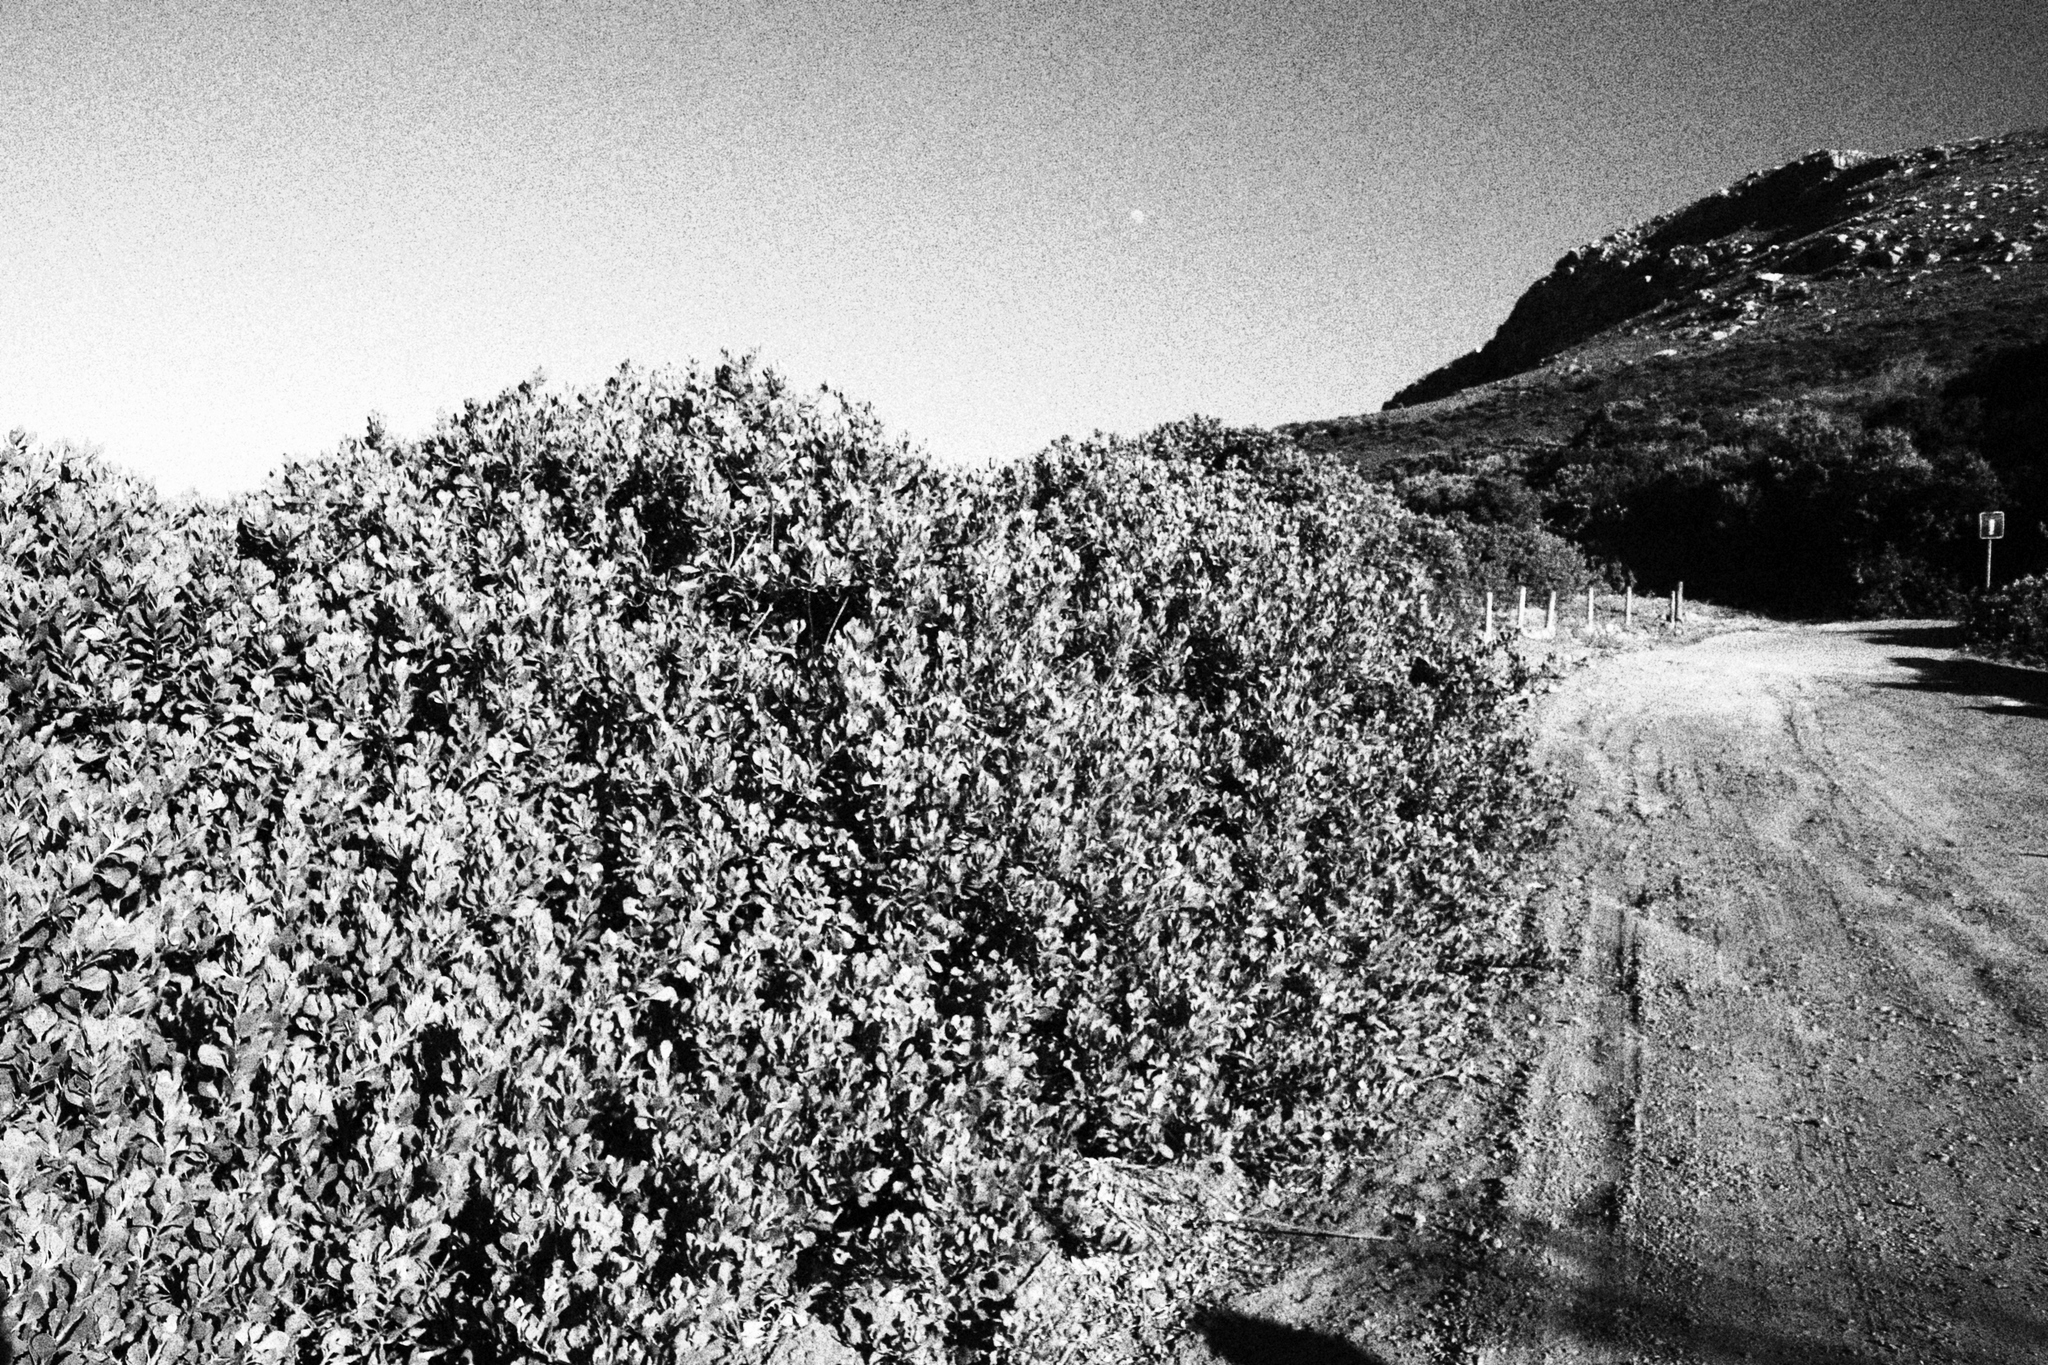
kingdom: Plantae
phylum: Tracheophyta
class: Magnoliopsida
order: Asterales
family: Asteraceae
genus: Osteospermum
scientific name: Osteospermum moniliferum
